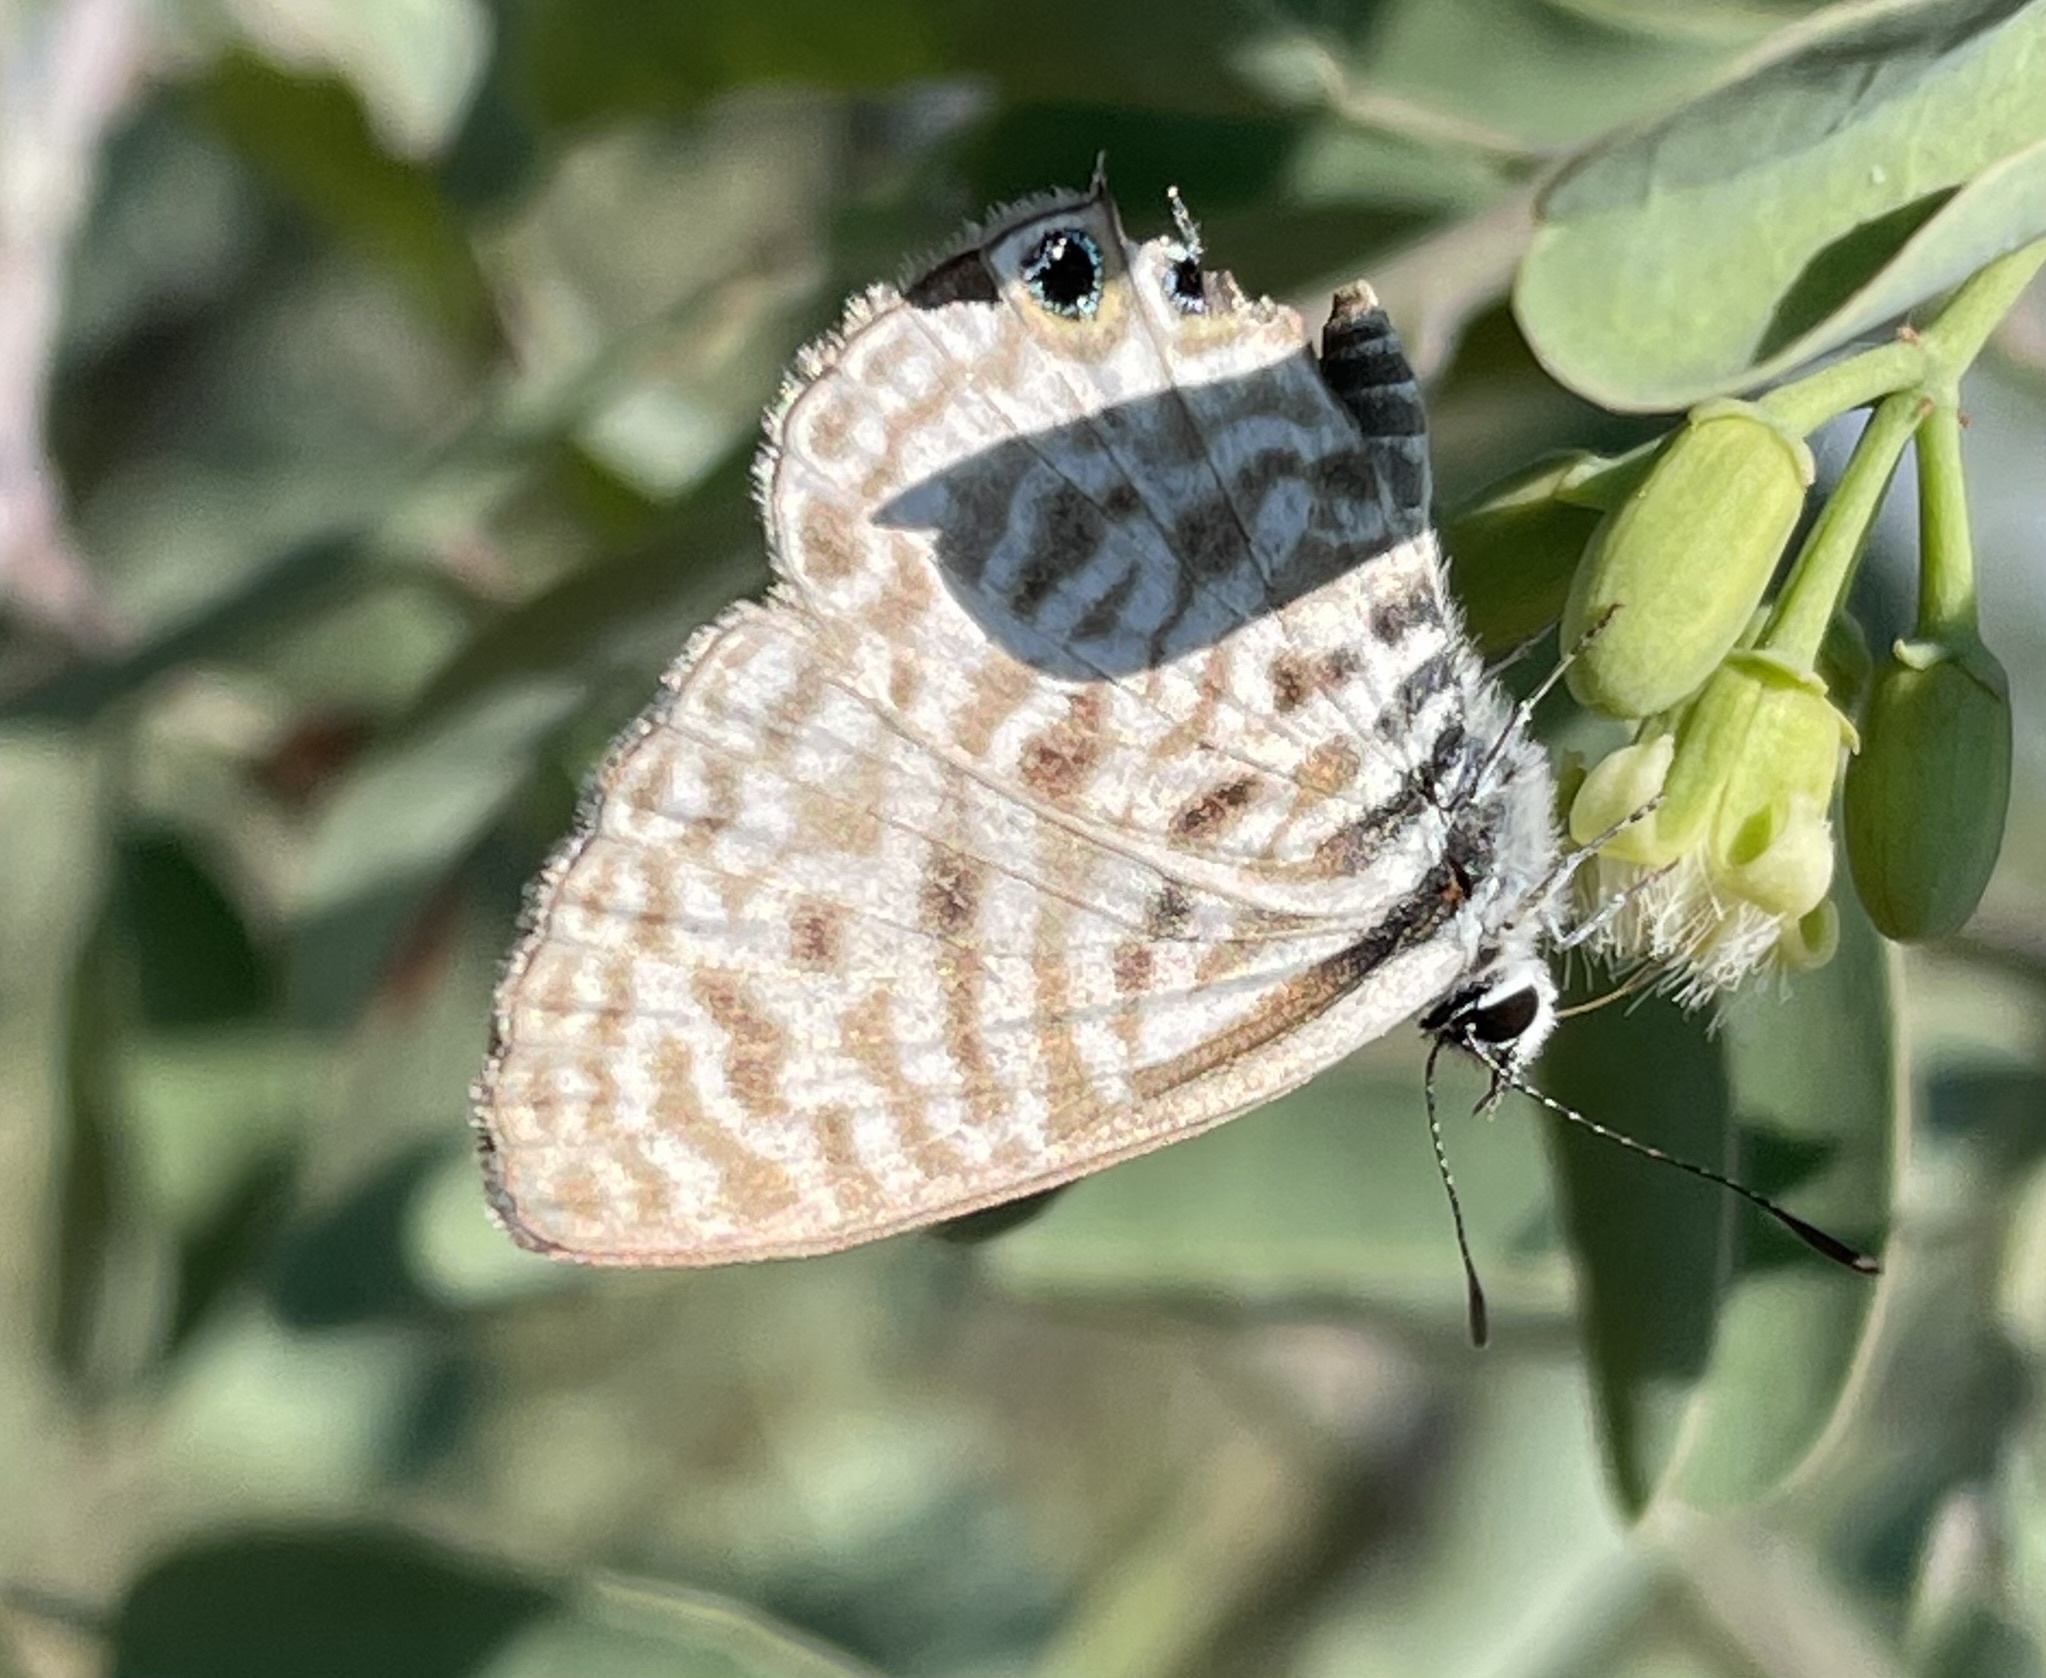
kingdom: Animalia
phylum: Arthropoda
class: Insecta
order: Lepidoptera
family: Lycaenidae
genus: Leptotes
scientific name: Leptotes
